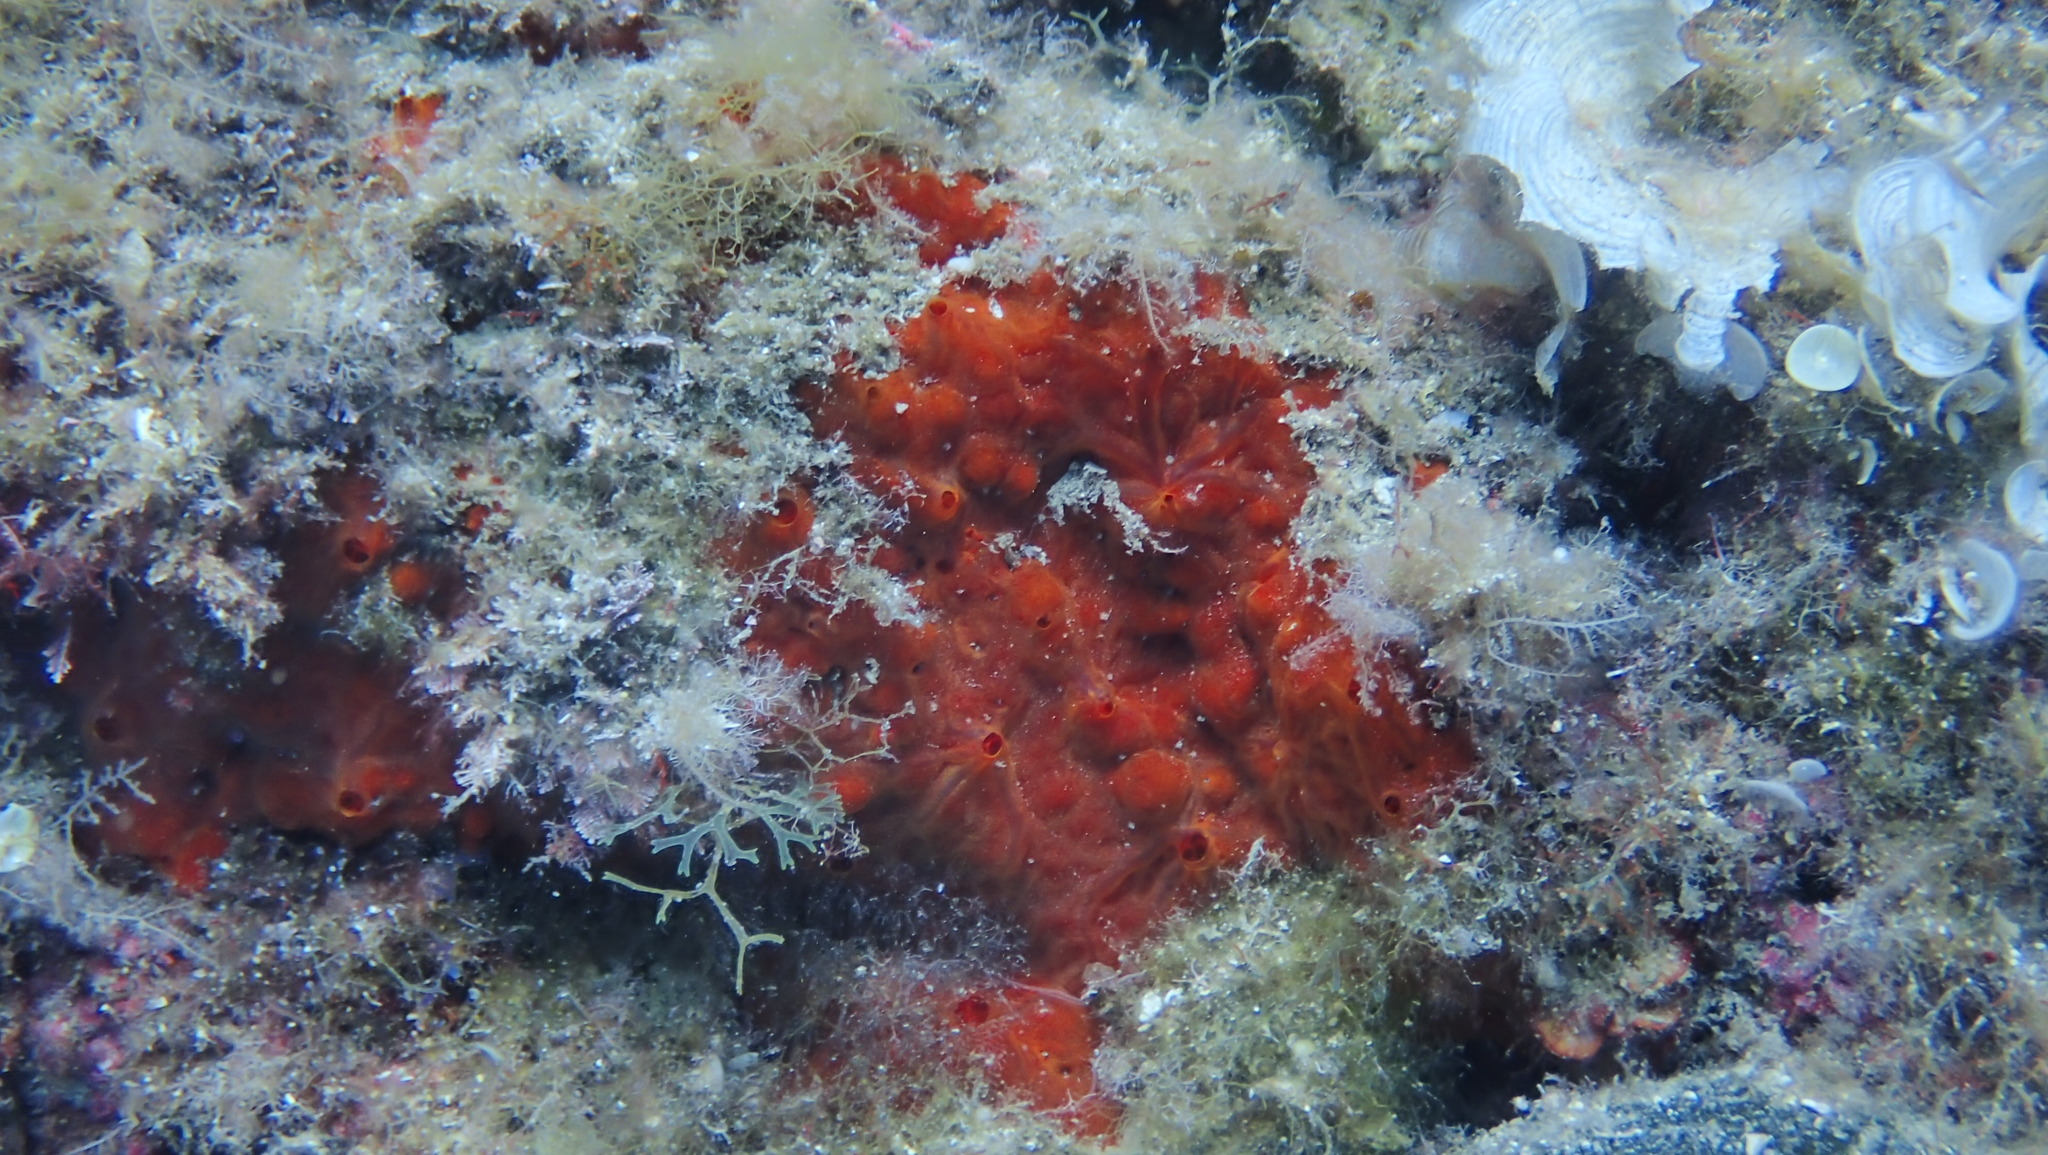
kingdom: Animalia
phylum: Porifera
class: Demospongiae
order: Poecilosclerida
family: Crambeidae
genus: Crambe
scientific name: Crambe crambe
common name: Orange-red encrusting sponge
